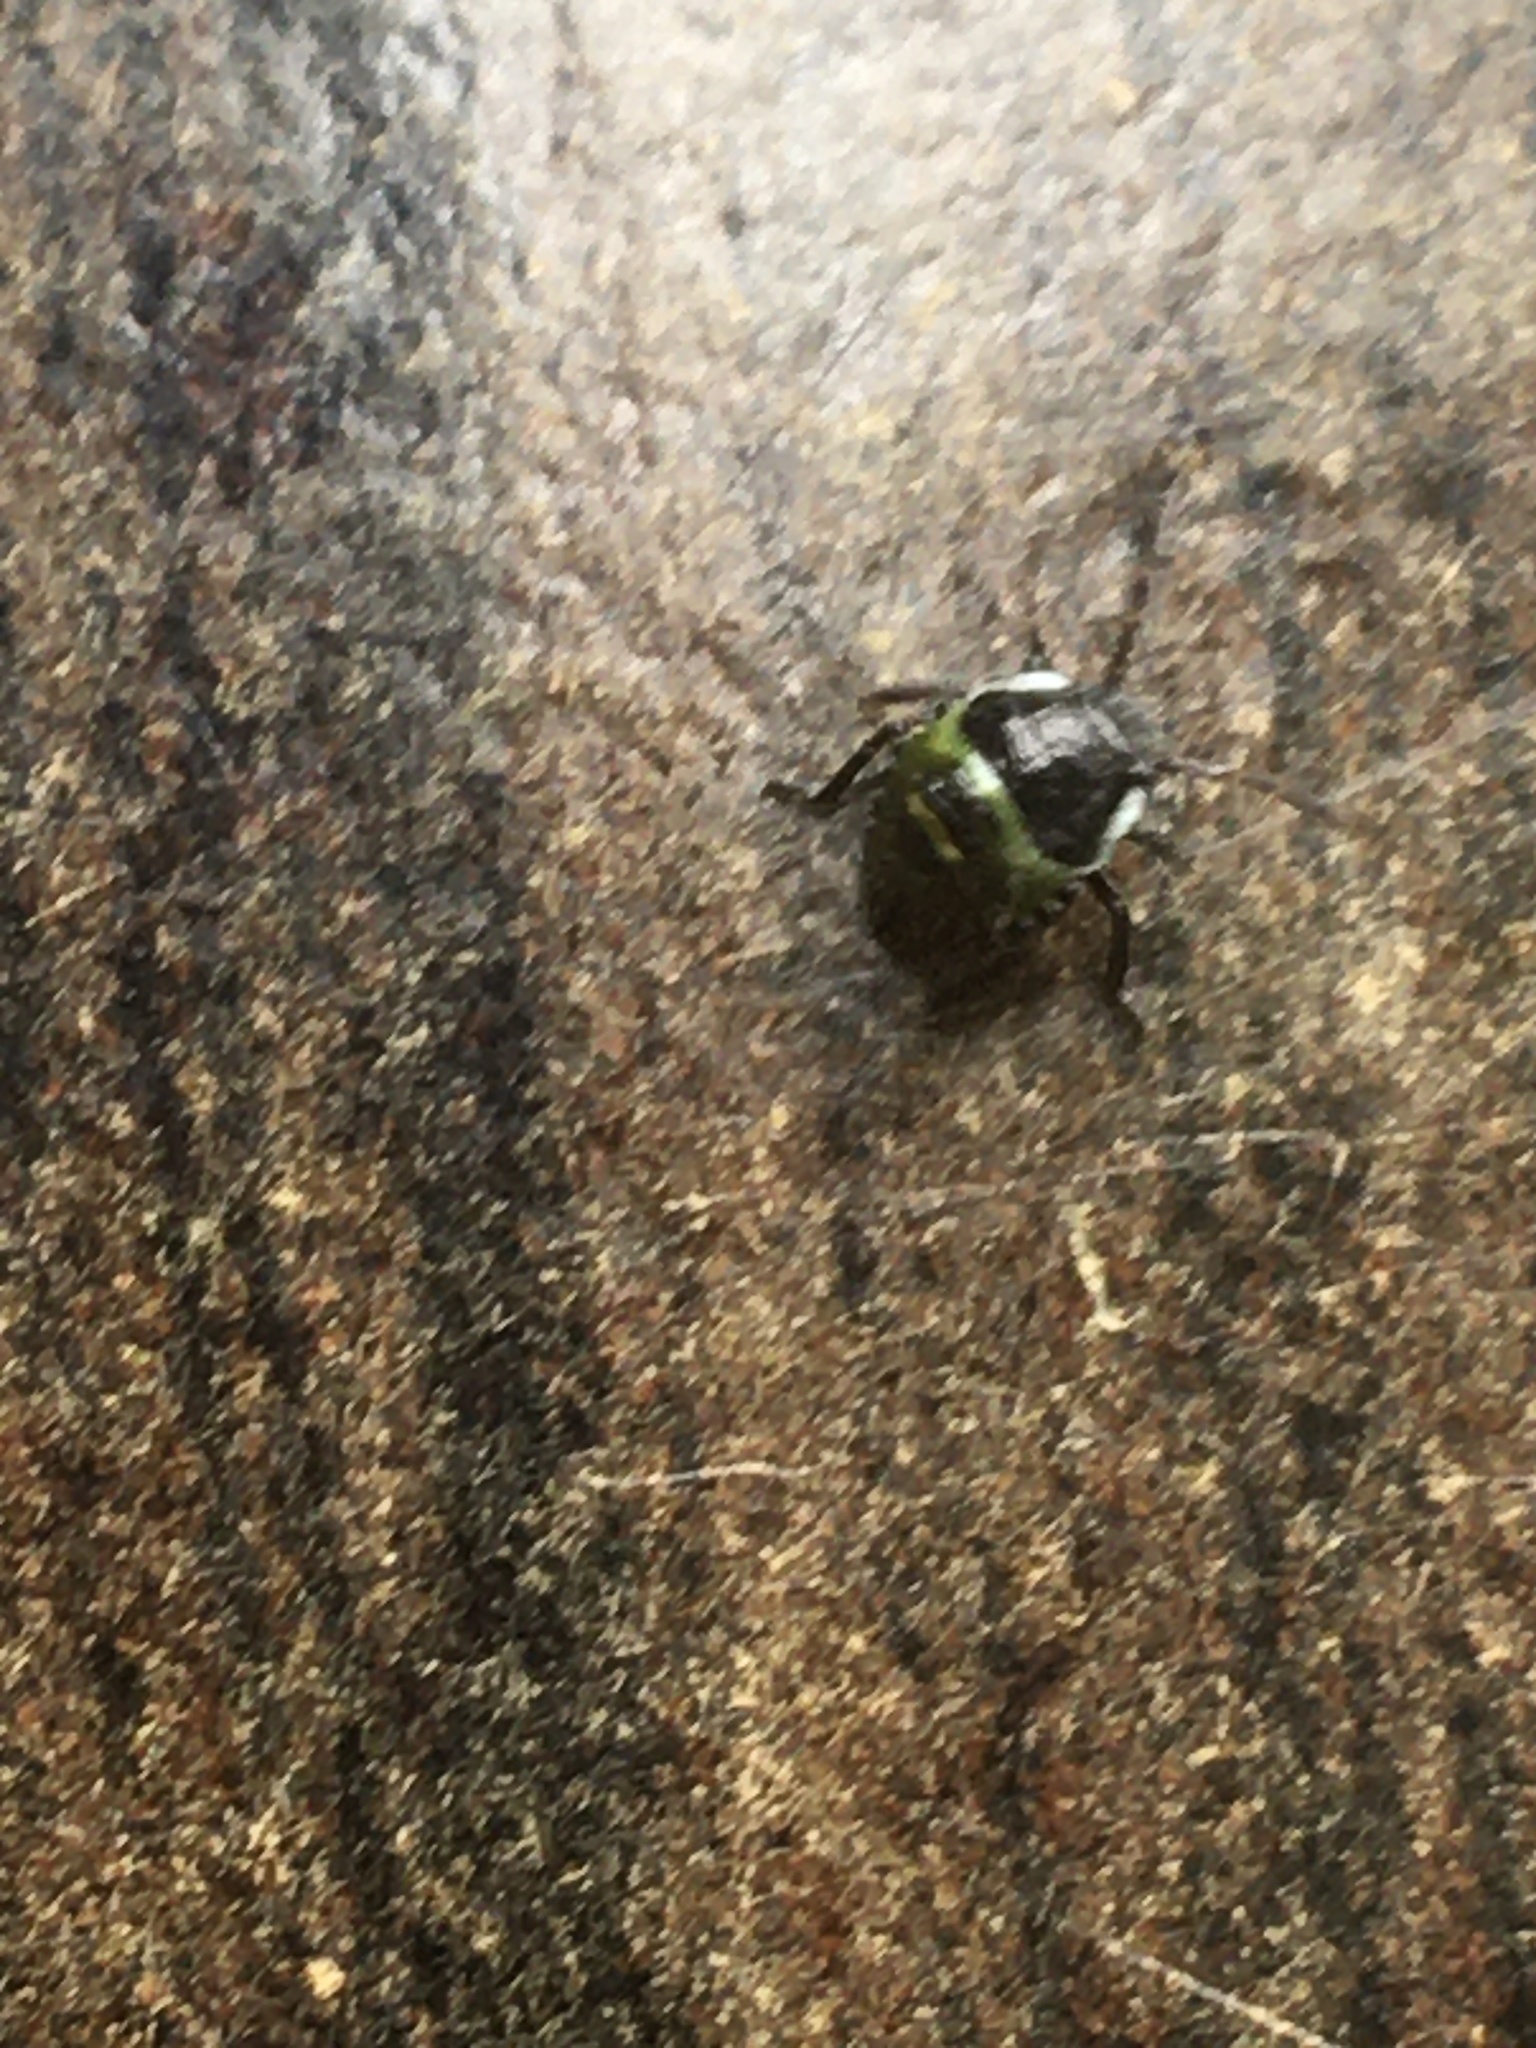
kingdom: Animalia
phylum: Arthropoda
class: Insecta
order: Hemiptera
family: Pentatomidae
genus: Palomena
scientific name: Palomena prasina
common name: Green shieldbug
